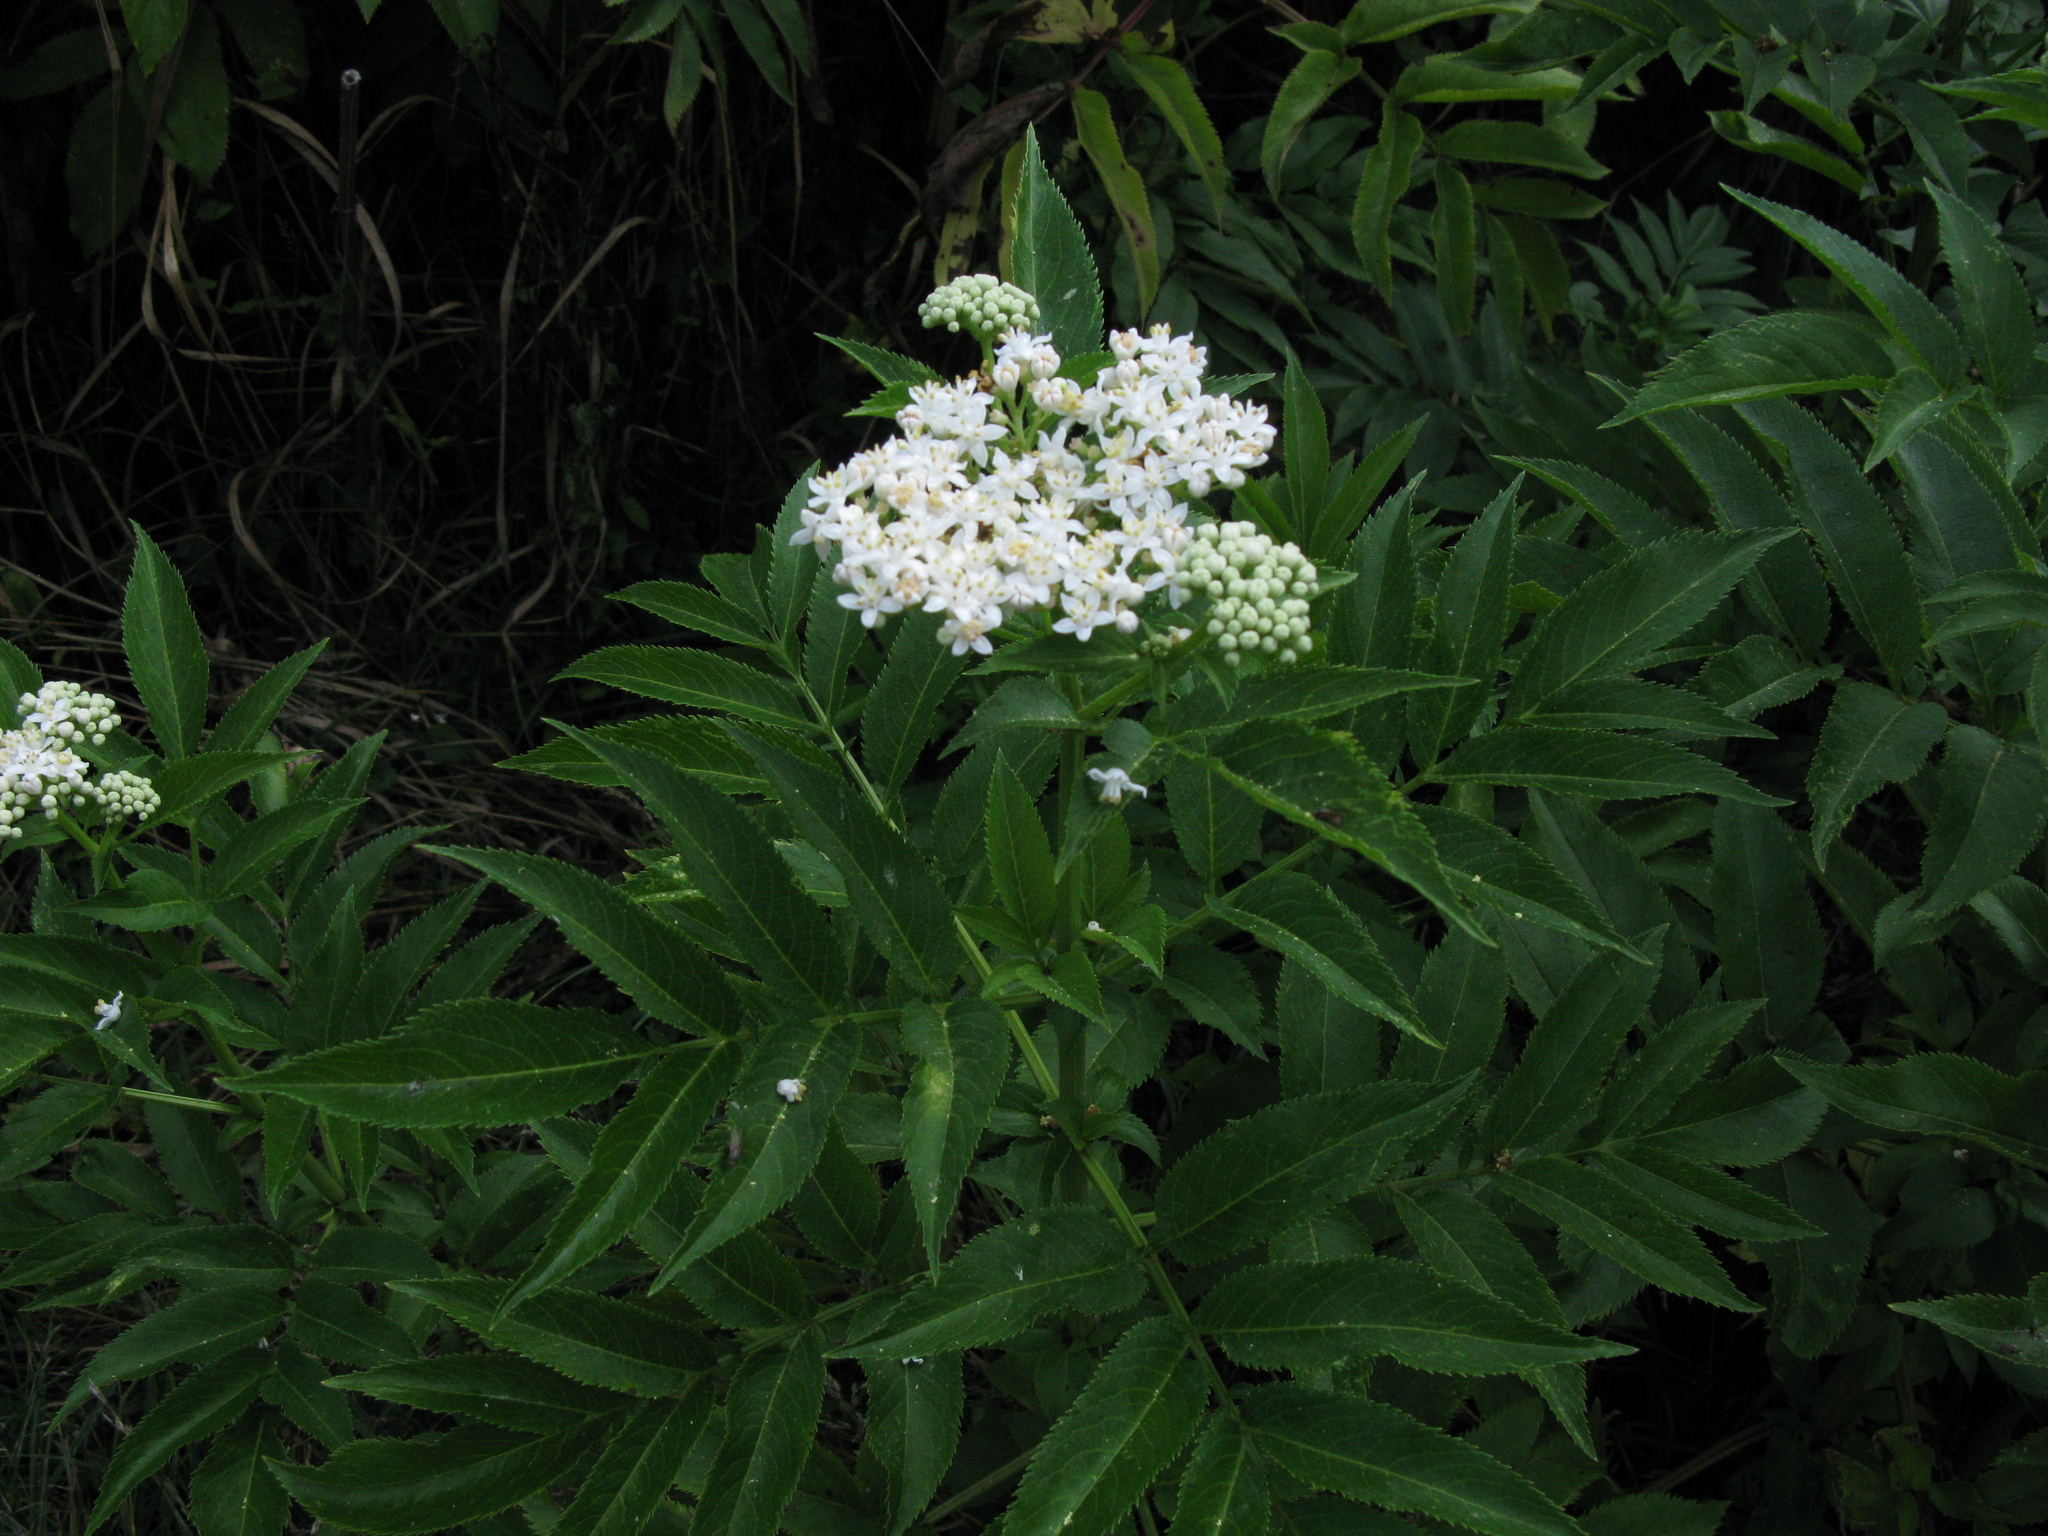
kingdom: Plantae
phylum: Tracheophyta
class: Magnoliopsida
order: Dipsacales
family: Viburnaceae
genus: Sambucus
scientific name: Sambucus ebulus
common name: Dwarf elder
